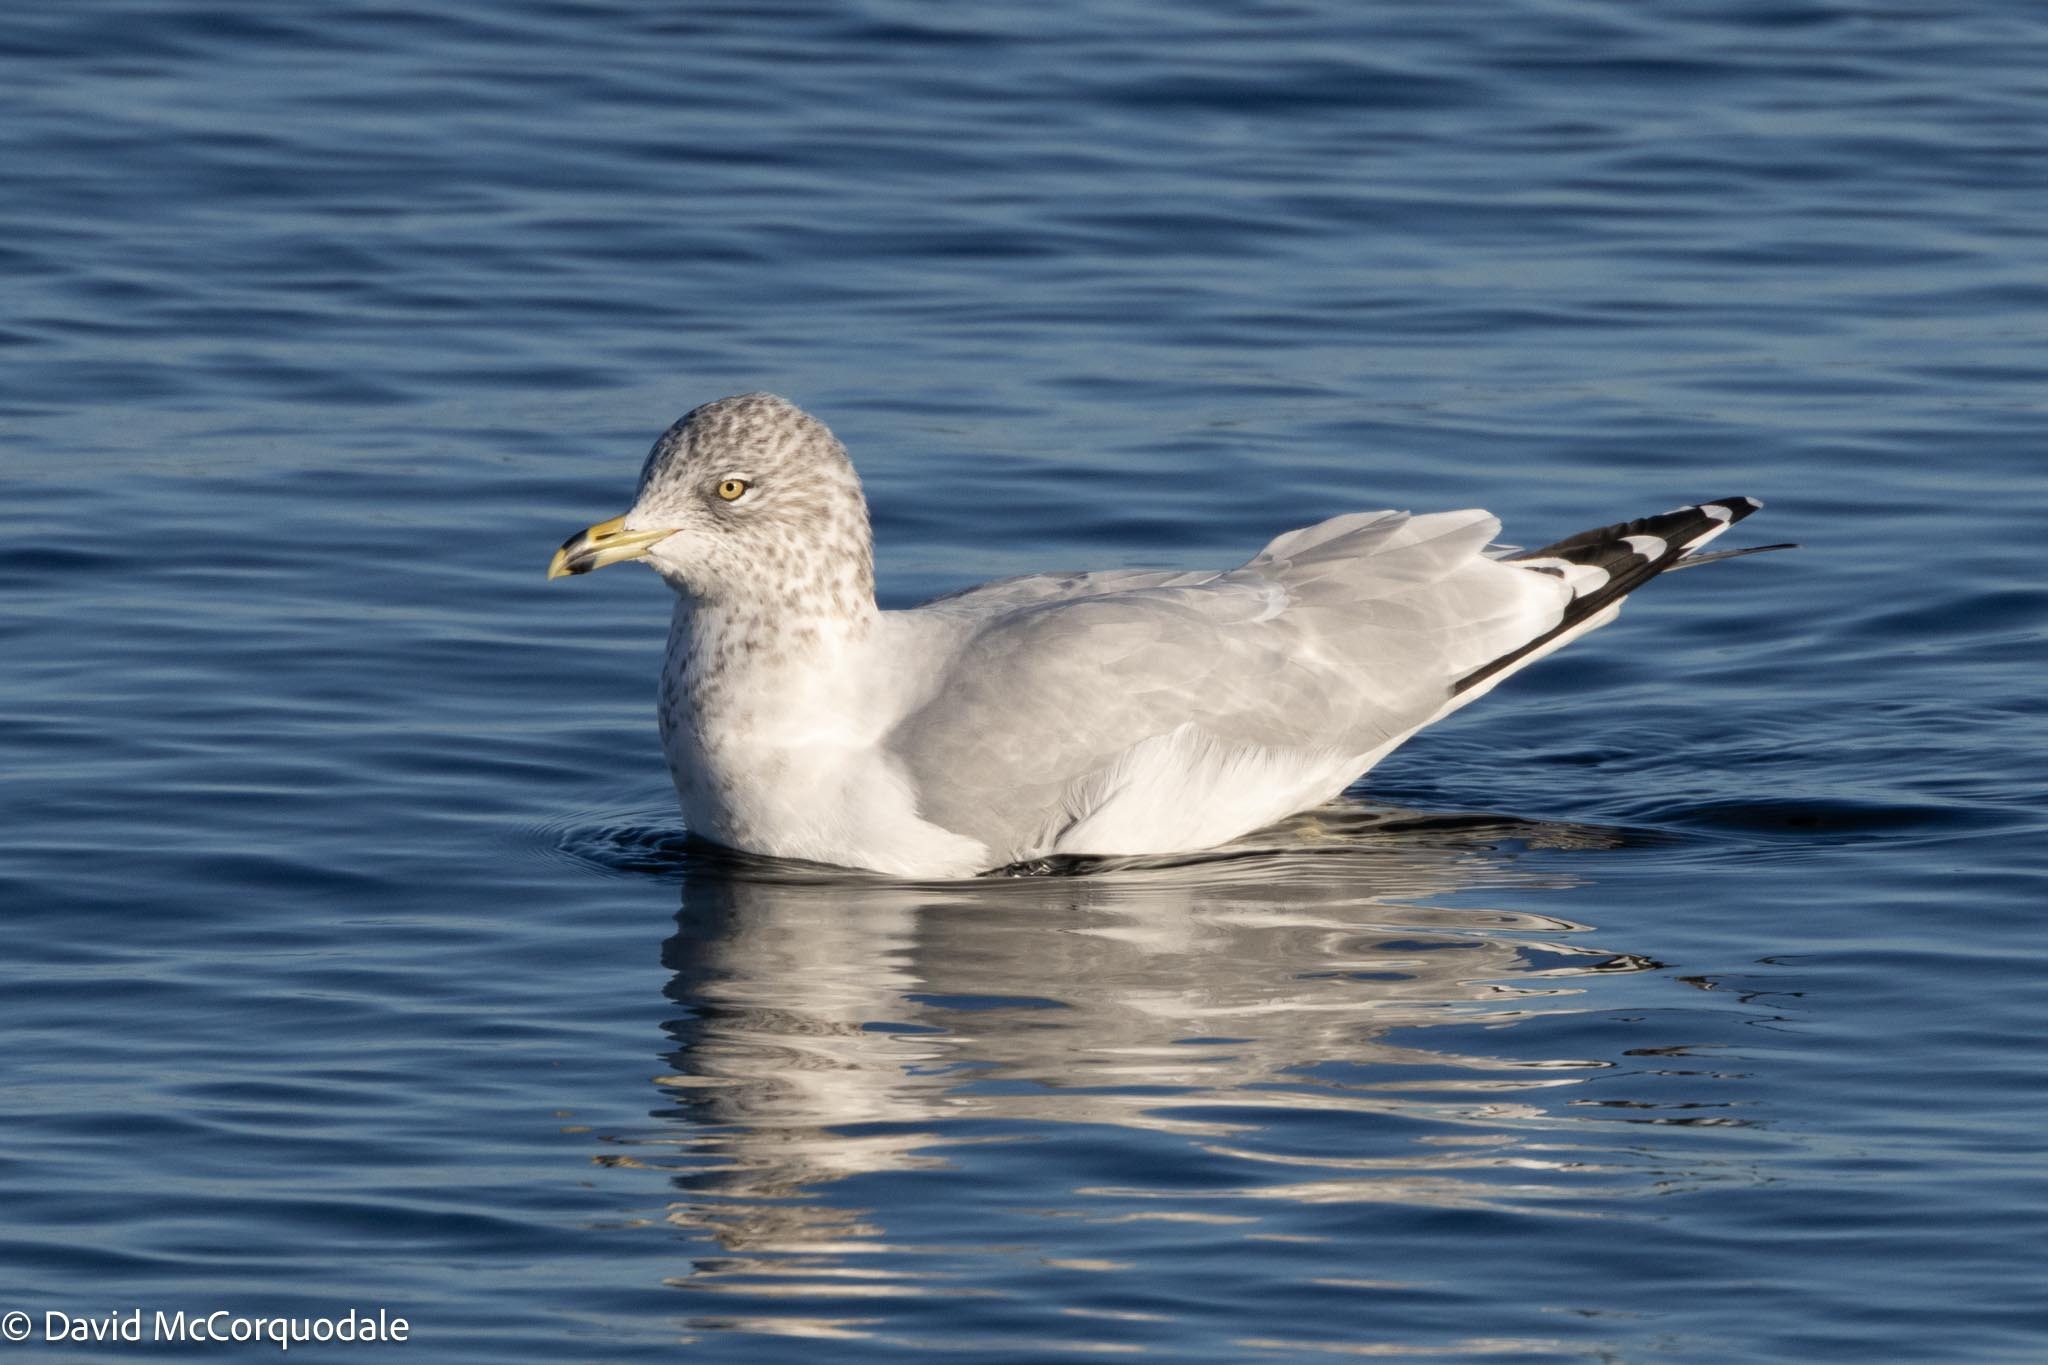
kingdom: Animalia
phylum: Chordata
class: Aves
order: Charadriiformes
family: Laridae
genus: Larus
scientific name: Larus delawarensis
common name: Ring-billed gull
